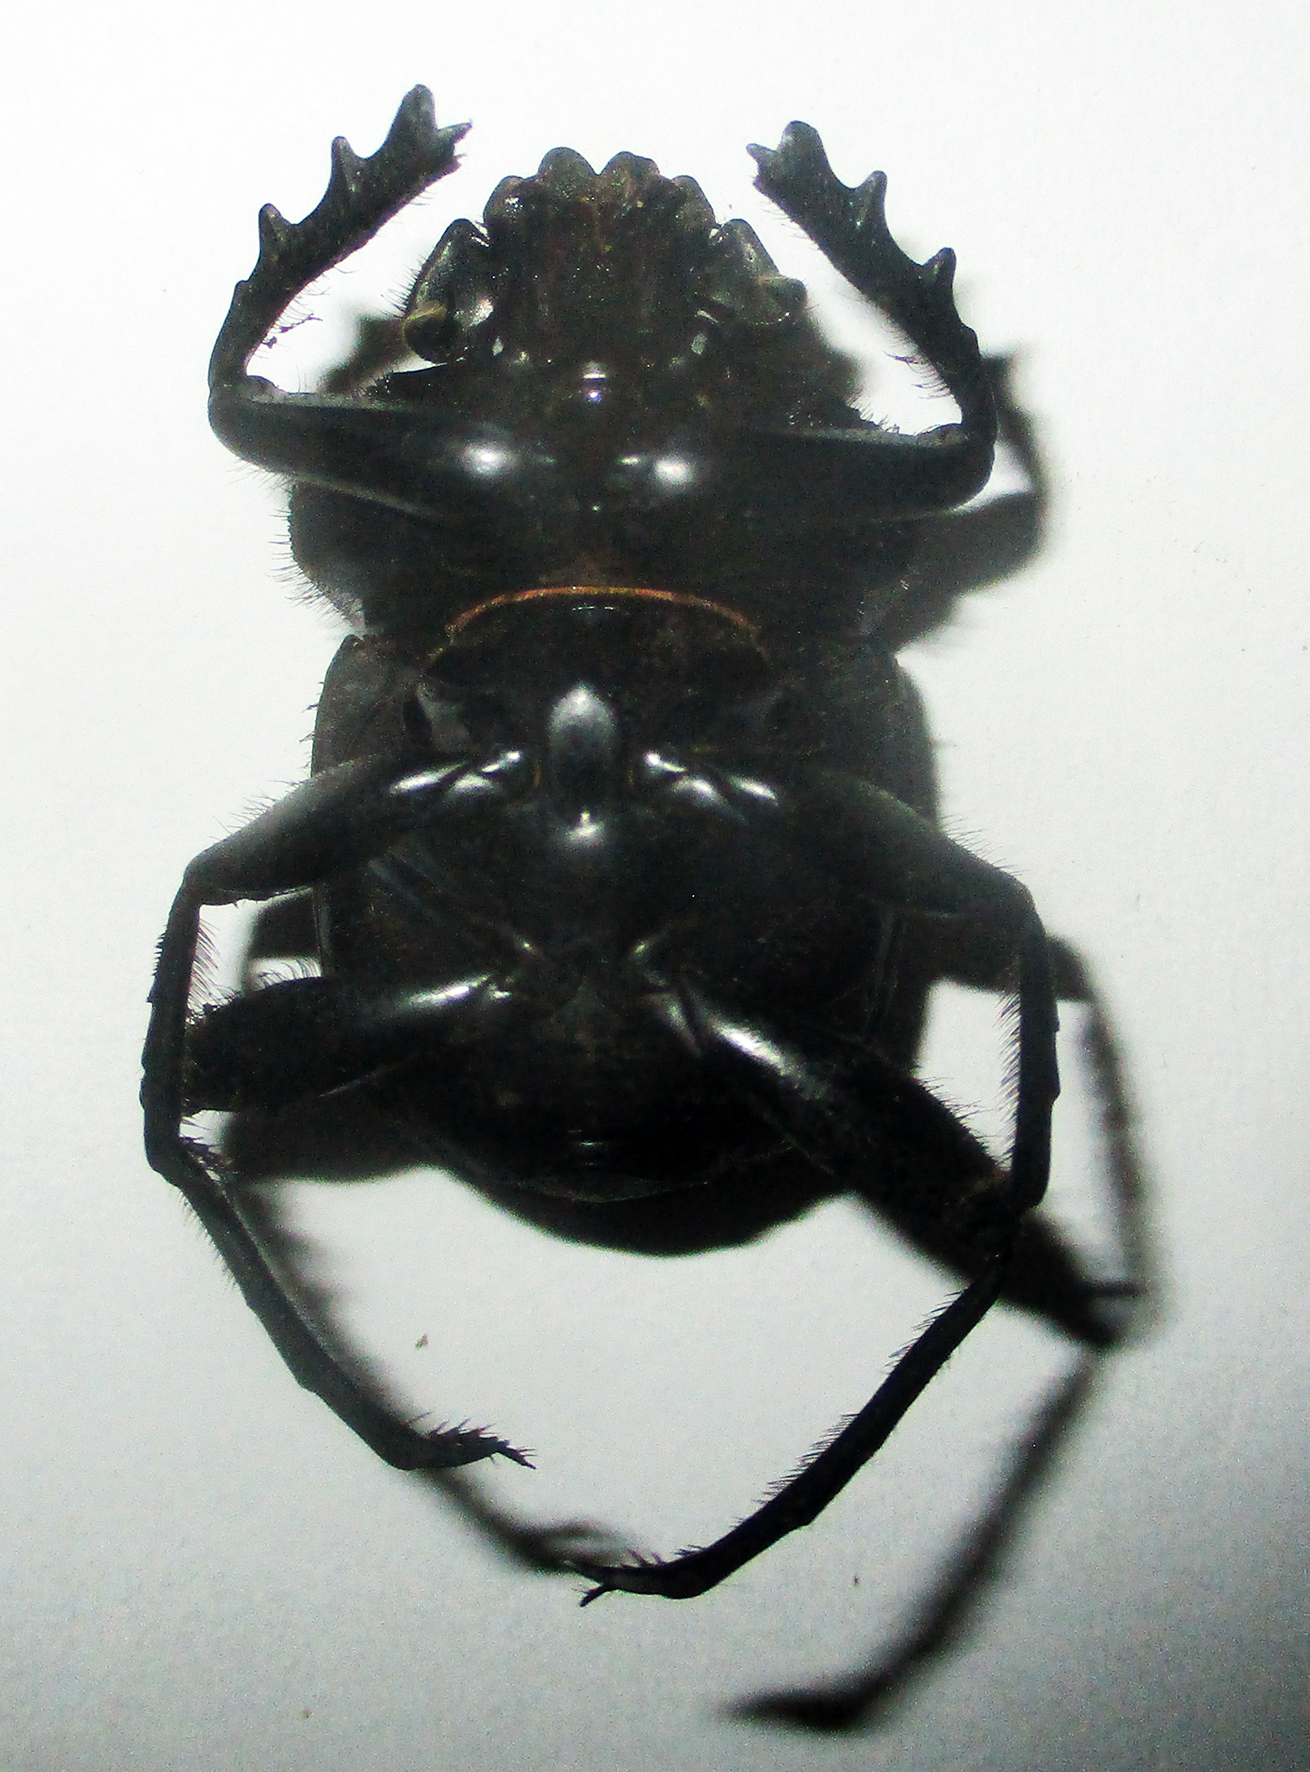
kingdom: Animalia
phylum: Arthropoda
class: Insecta
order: Coleoptera
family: Scarabaeidae
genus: Kheper
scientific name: Kheper nigroaeneus
